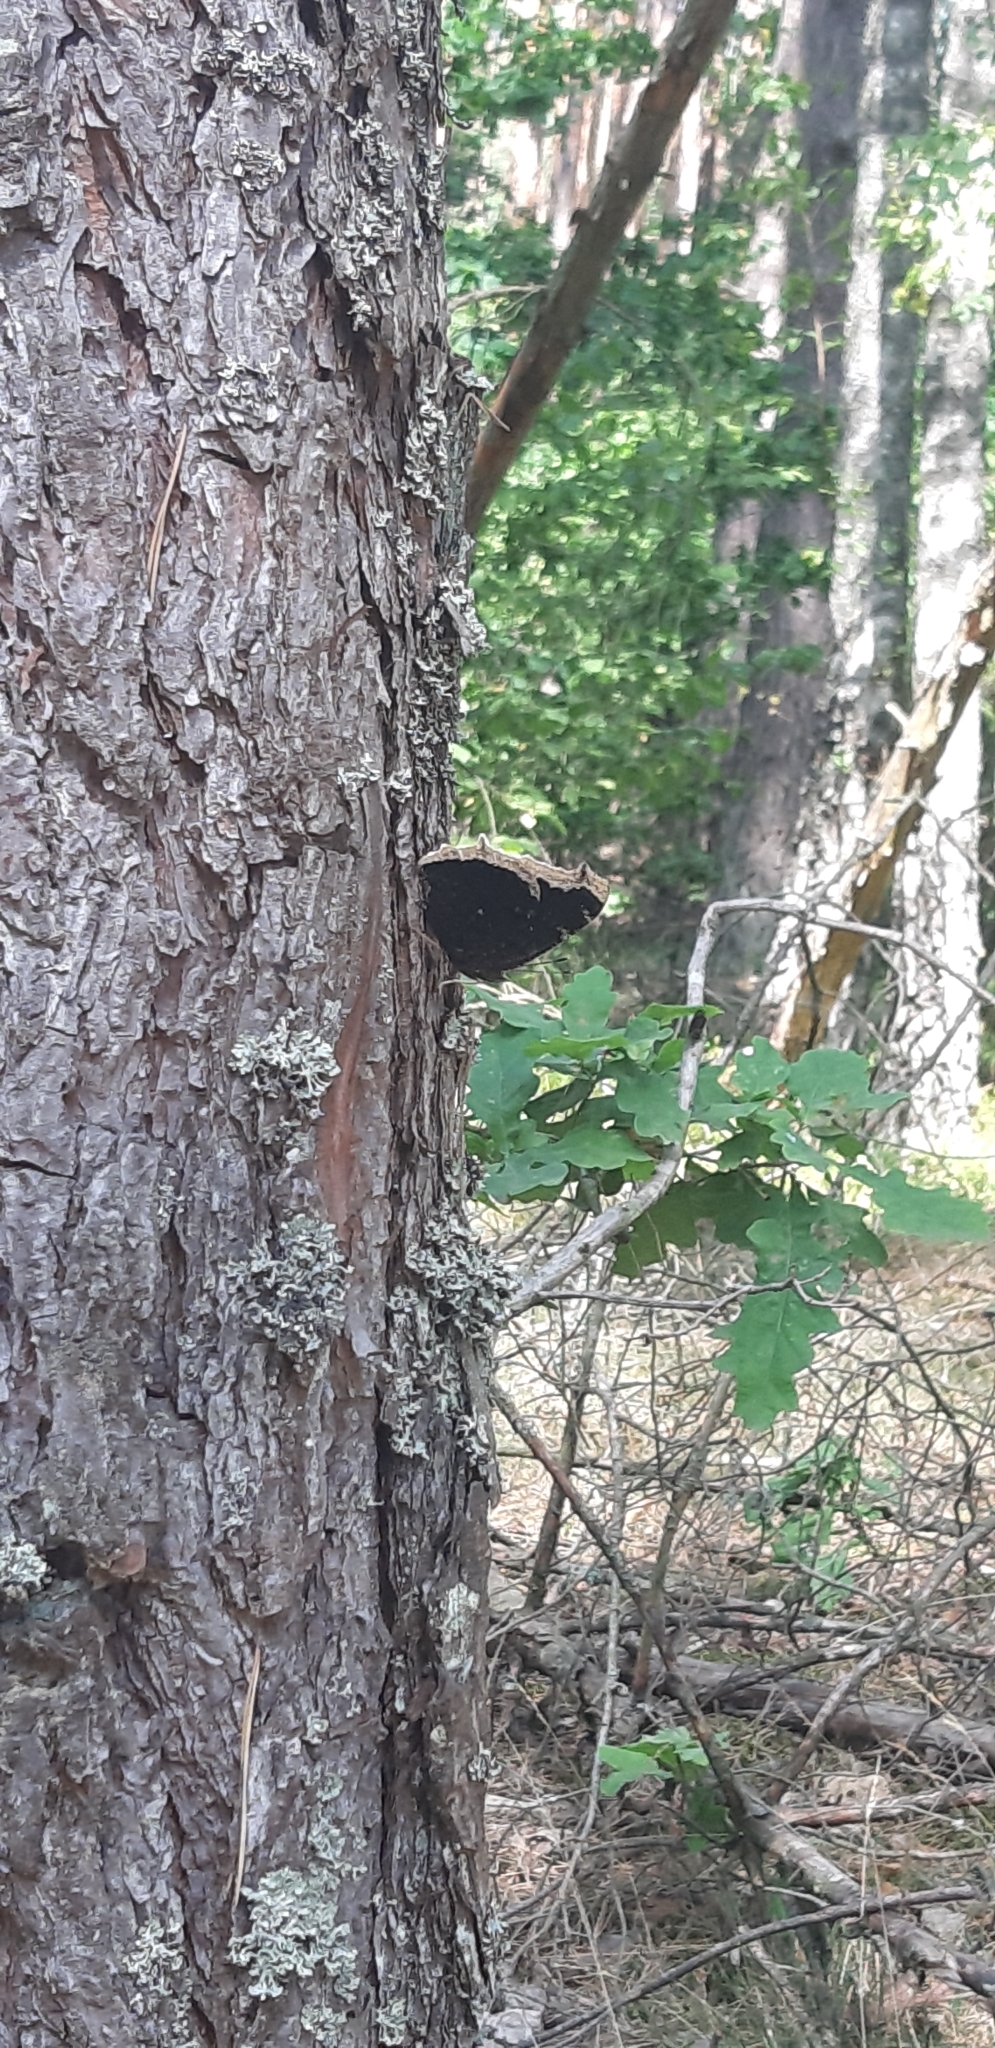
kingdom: Animalia
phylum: Arthropoda
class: Insecta
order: Lepidoptera
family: Nymphalidae
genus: Nymphalis
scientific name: Nymphalis antiopa
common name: Camberwell beauty
